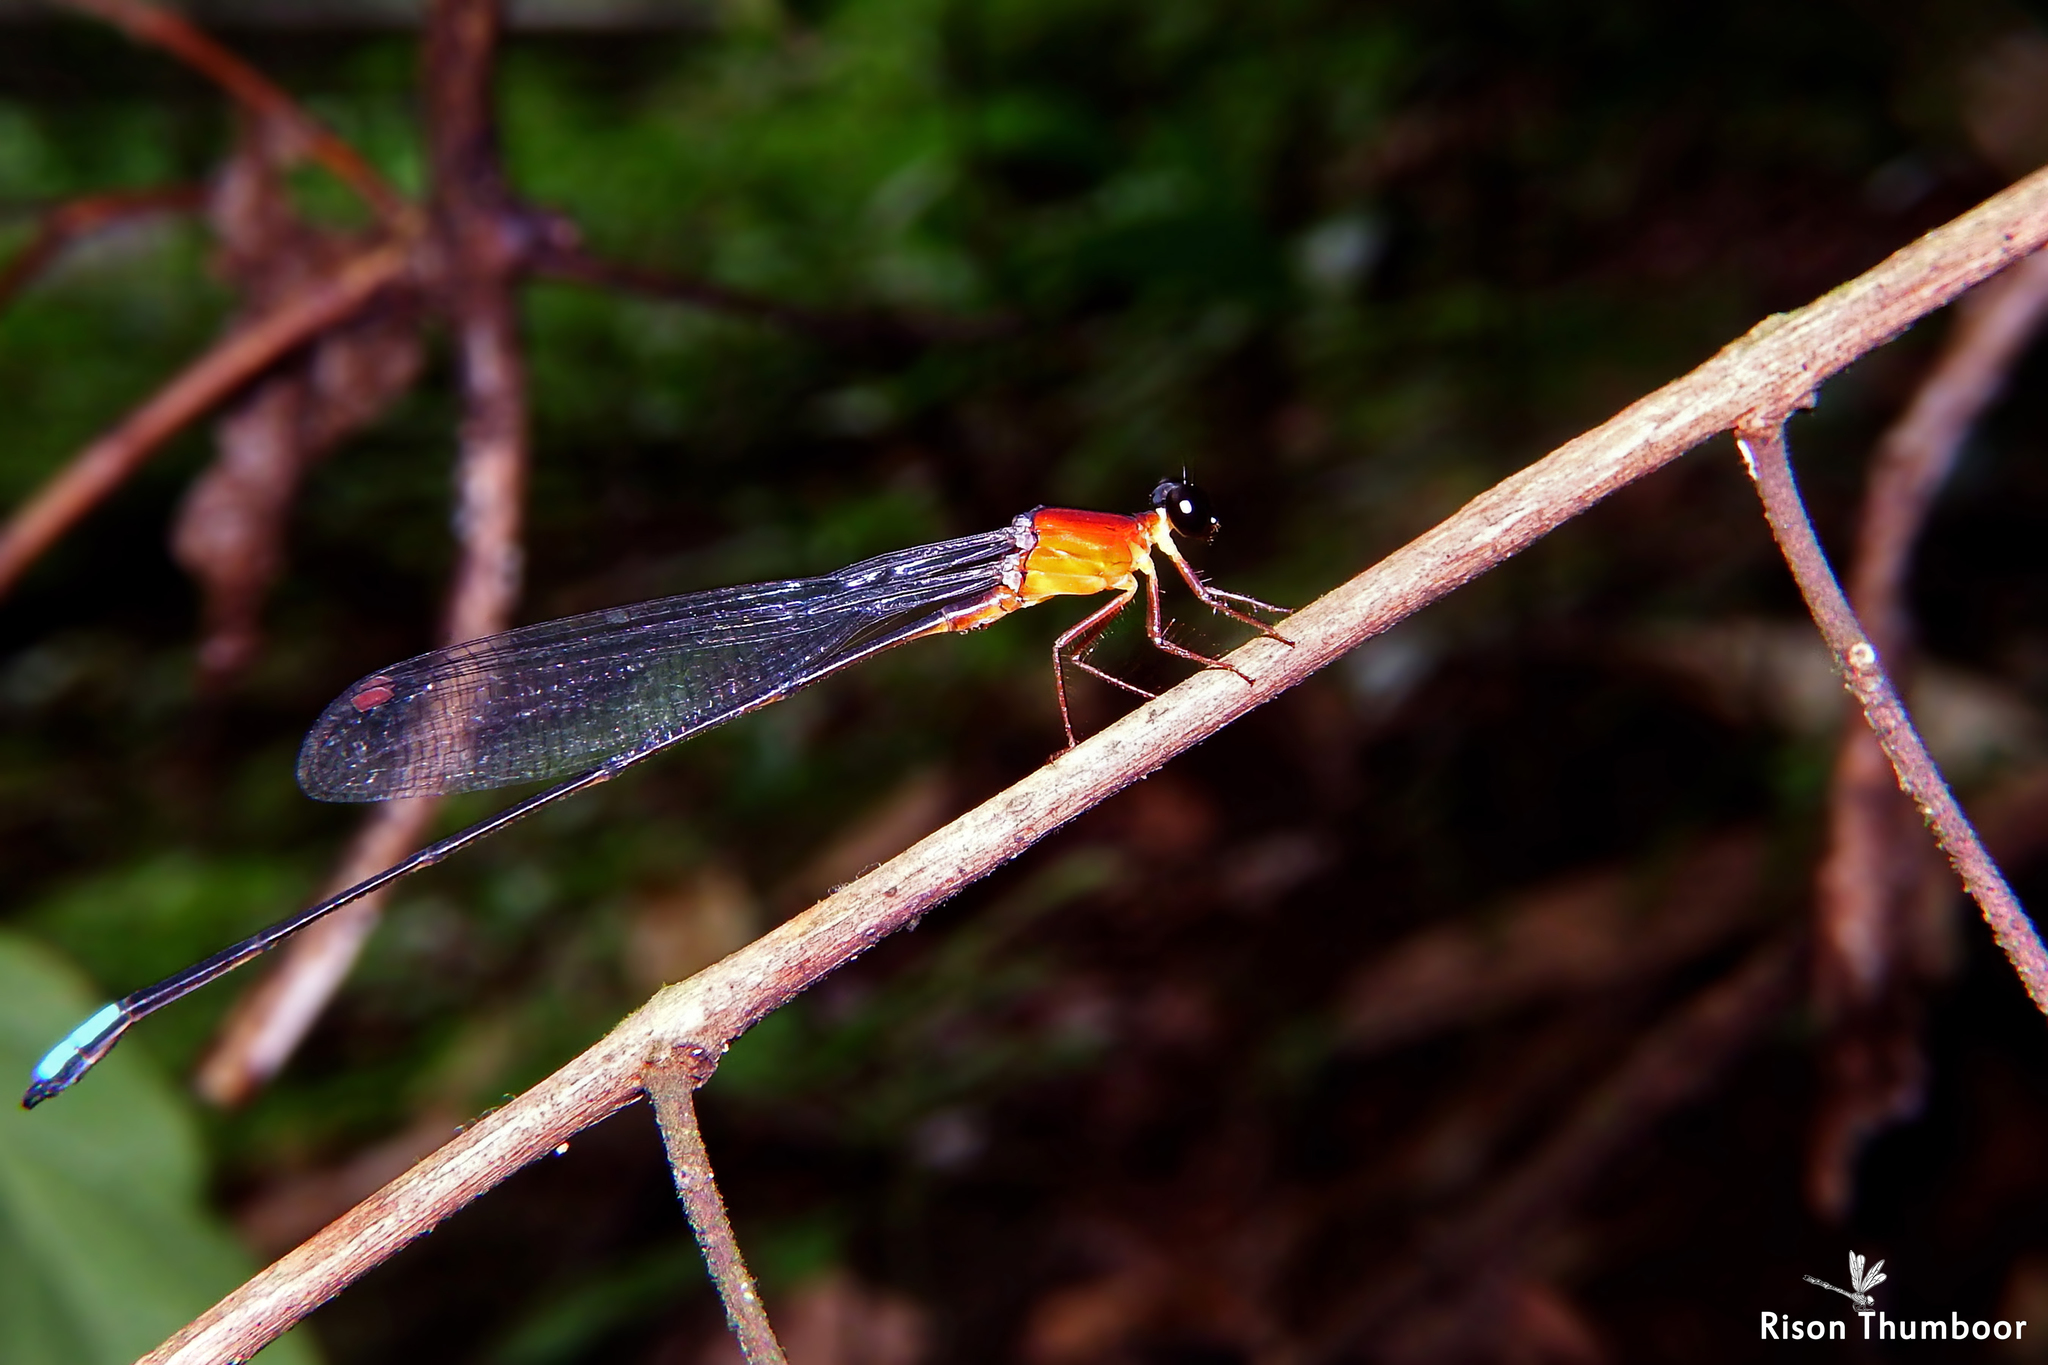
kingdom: Animalia
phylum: Arthropoda
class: Insecta
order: Odonata
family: Platystictidae
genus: Indosticta
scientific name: Indosticta deccanensis
